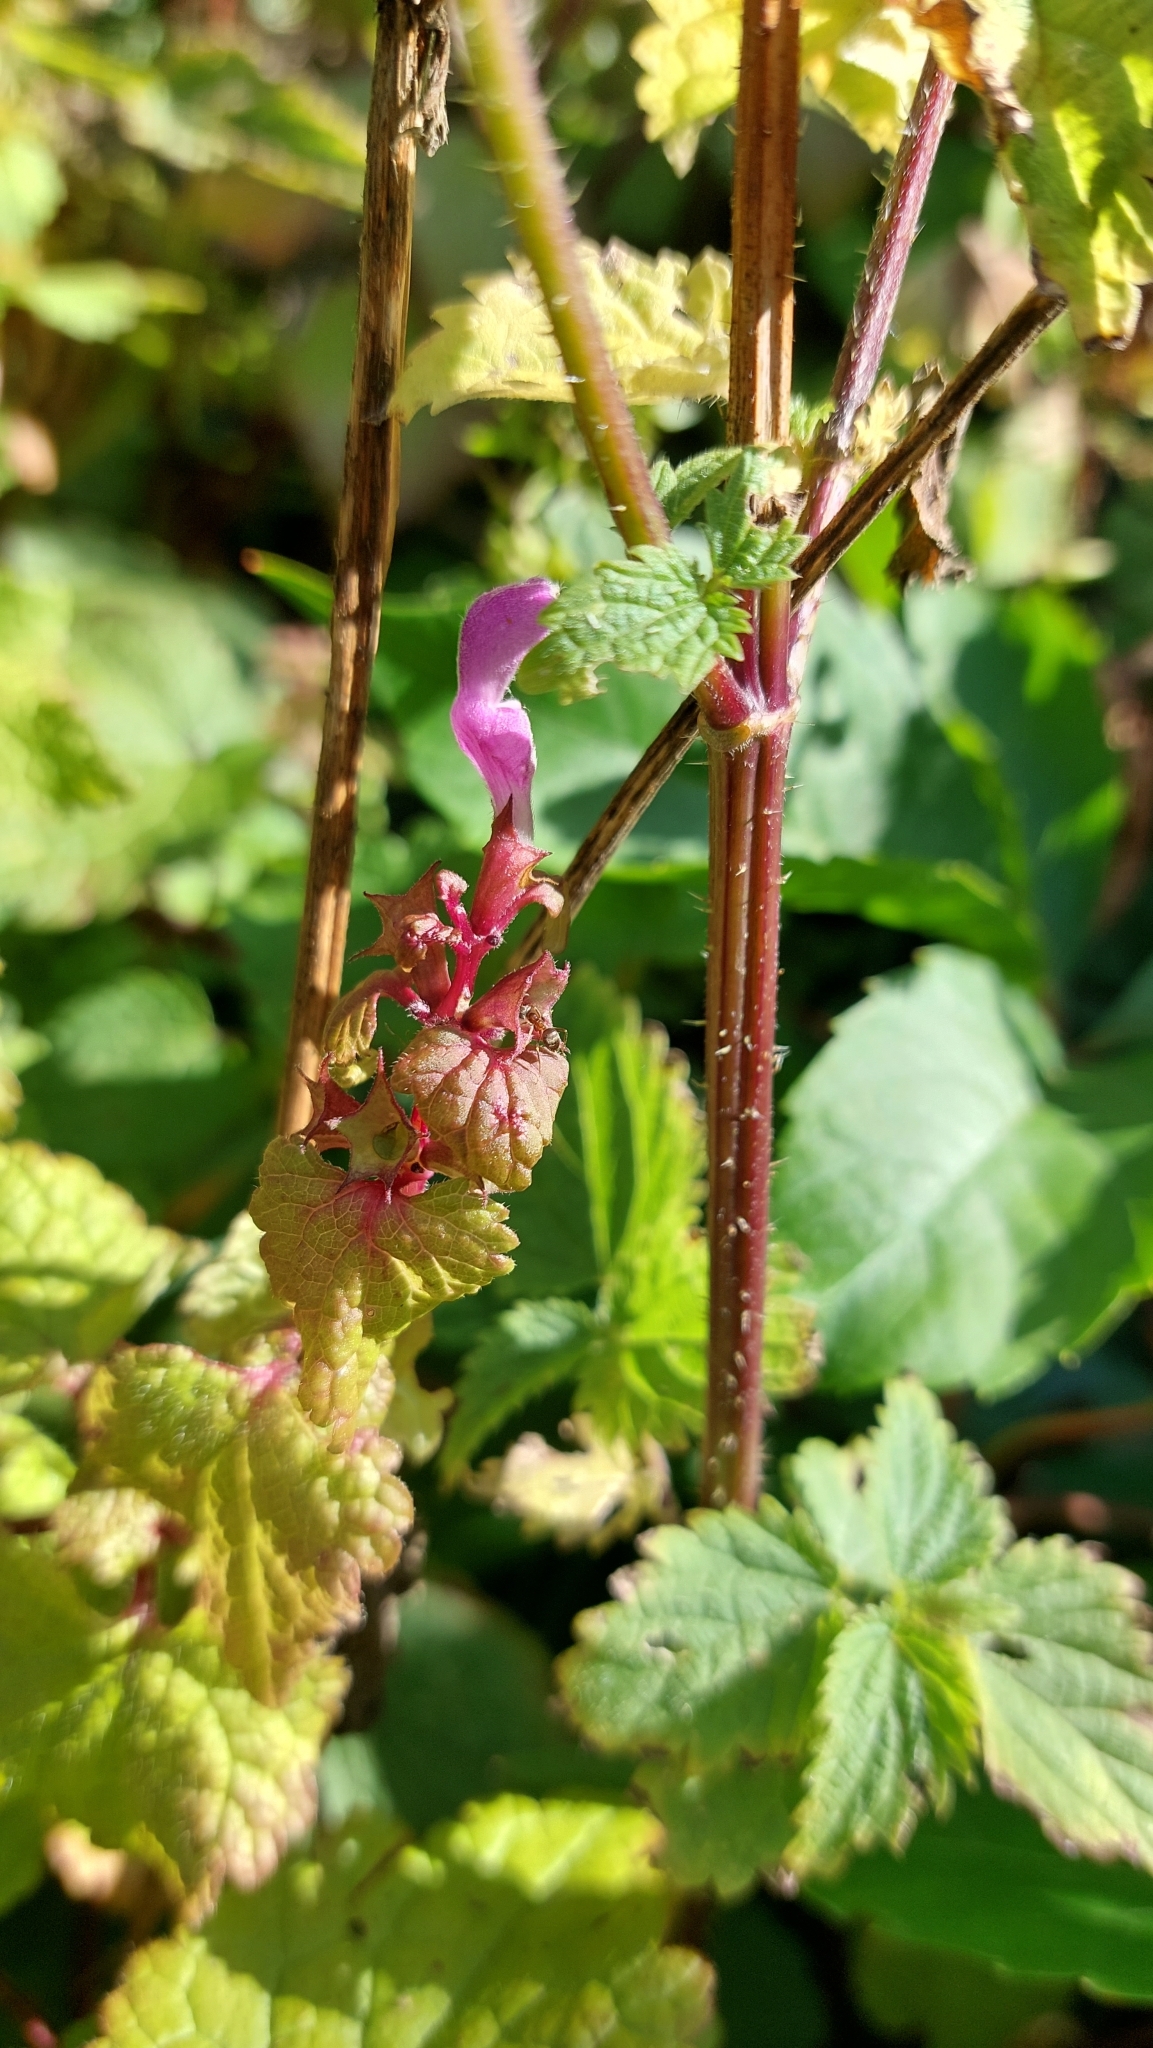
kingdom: Plantae
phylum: Tracheophyta
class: Magnoliopsida
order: Lamiales
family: Lamiaceae
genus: Lamium
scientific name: Lamium maculatum
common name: Spotted dead-nettle
